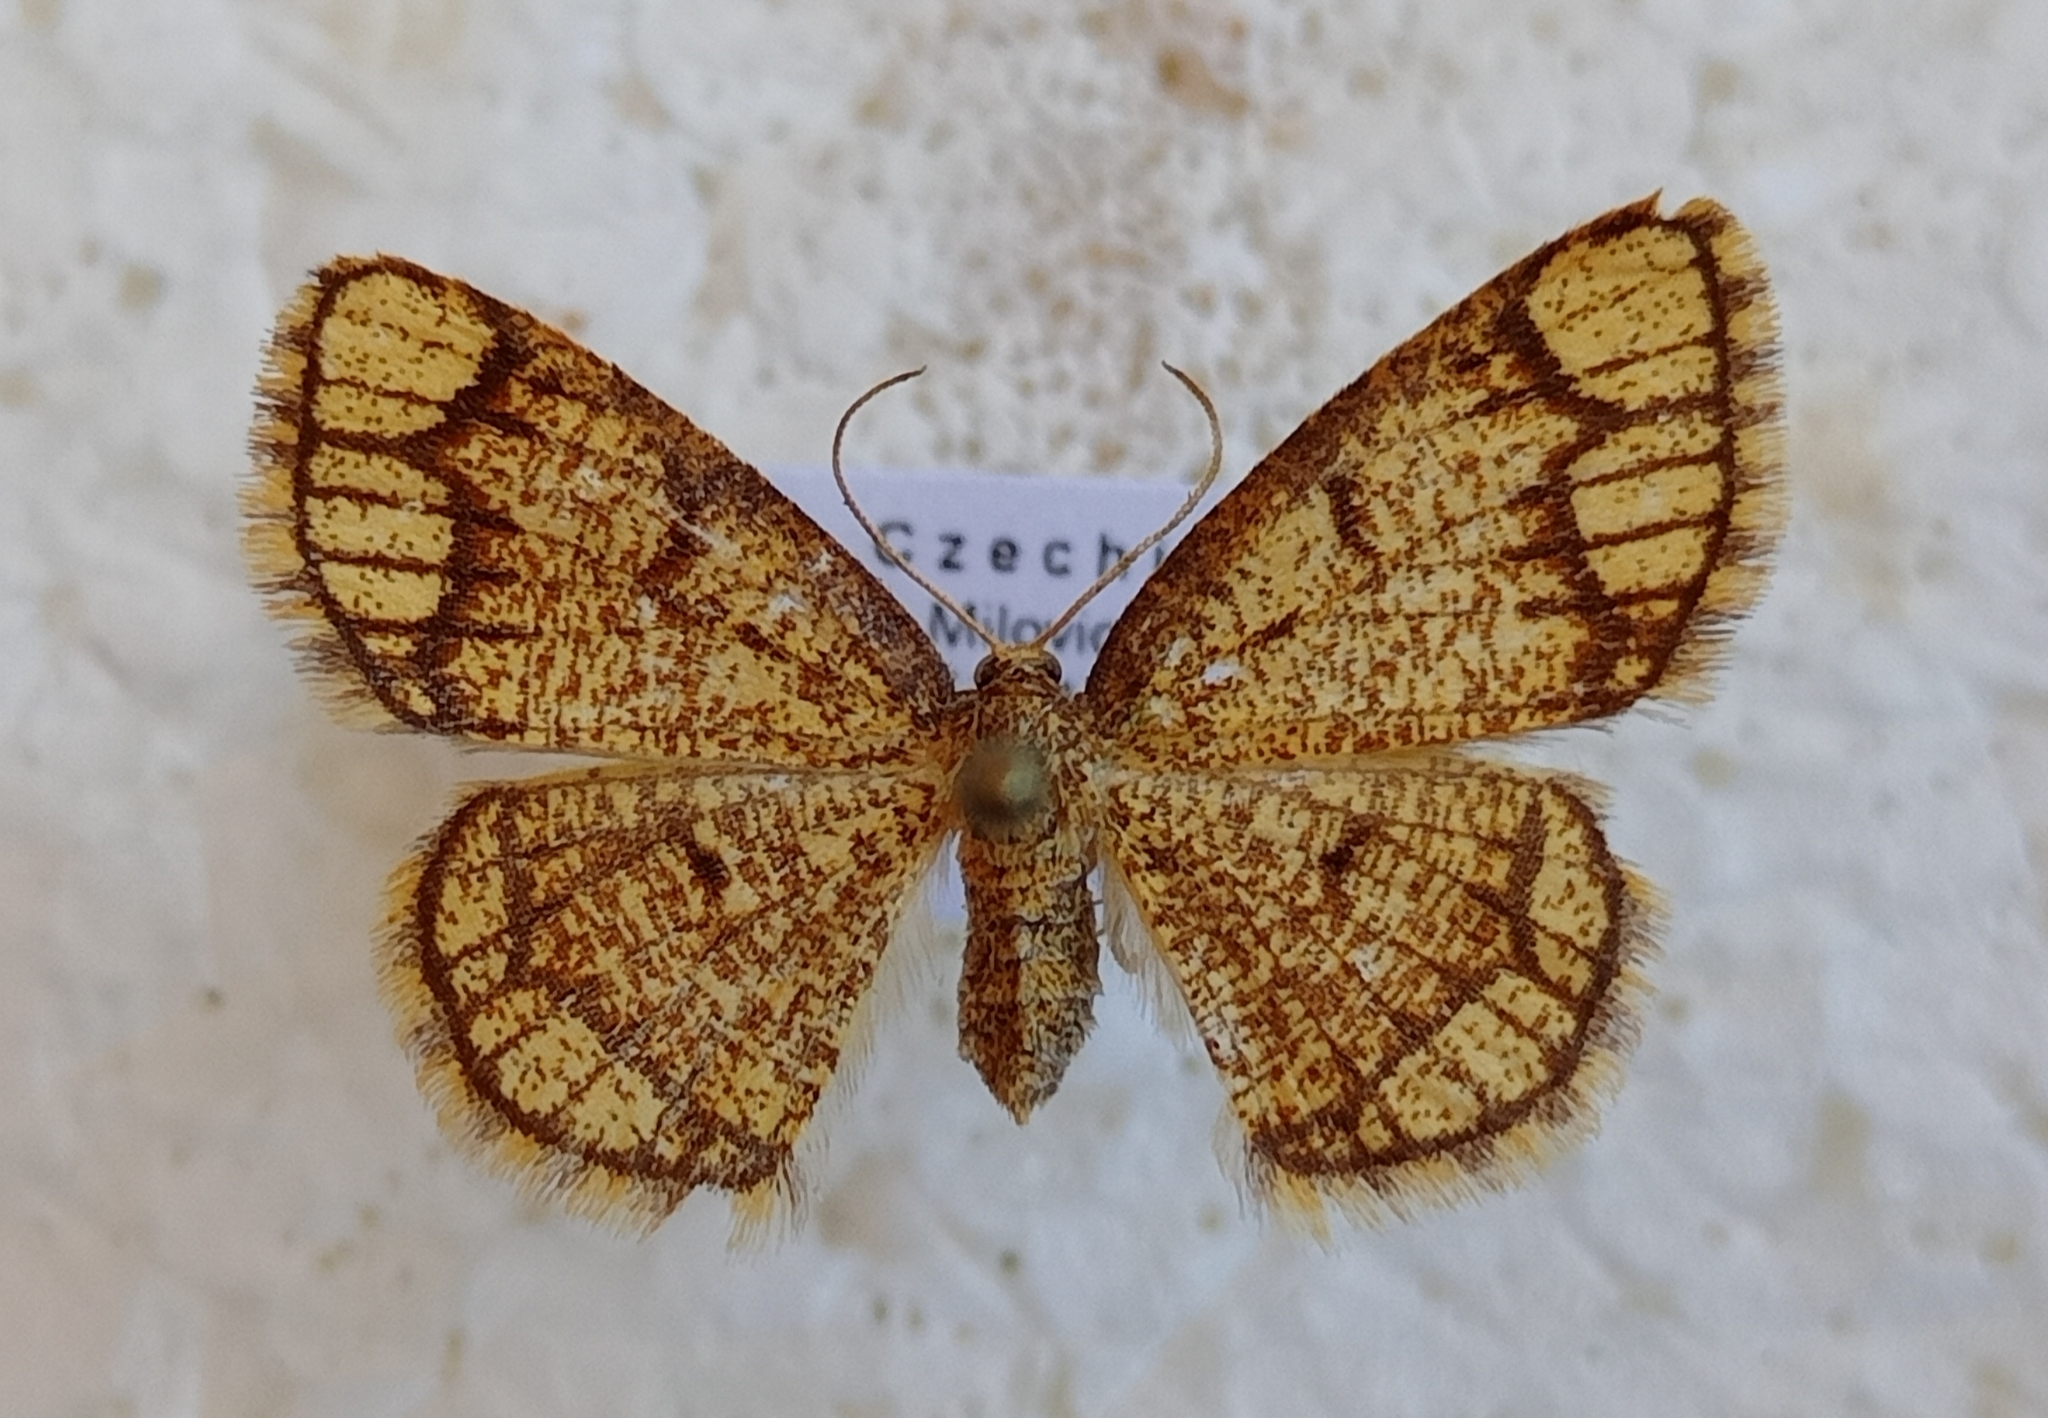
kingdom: Animalia
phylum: Arthropoda
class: Insecta
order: Lepidoptera
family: Geometridae
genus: Stegania
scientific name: Stegania cararia
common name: Ringed border
